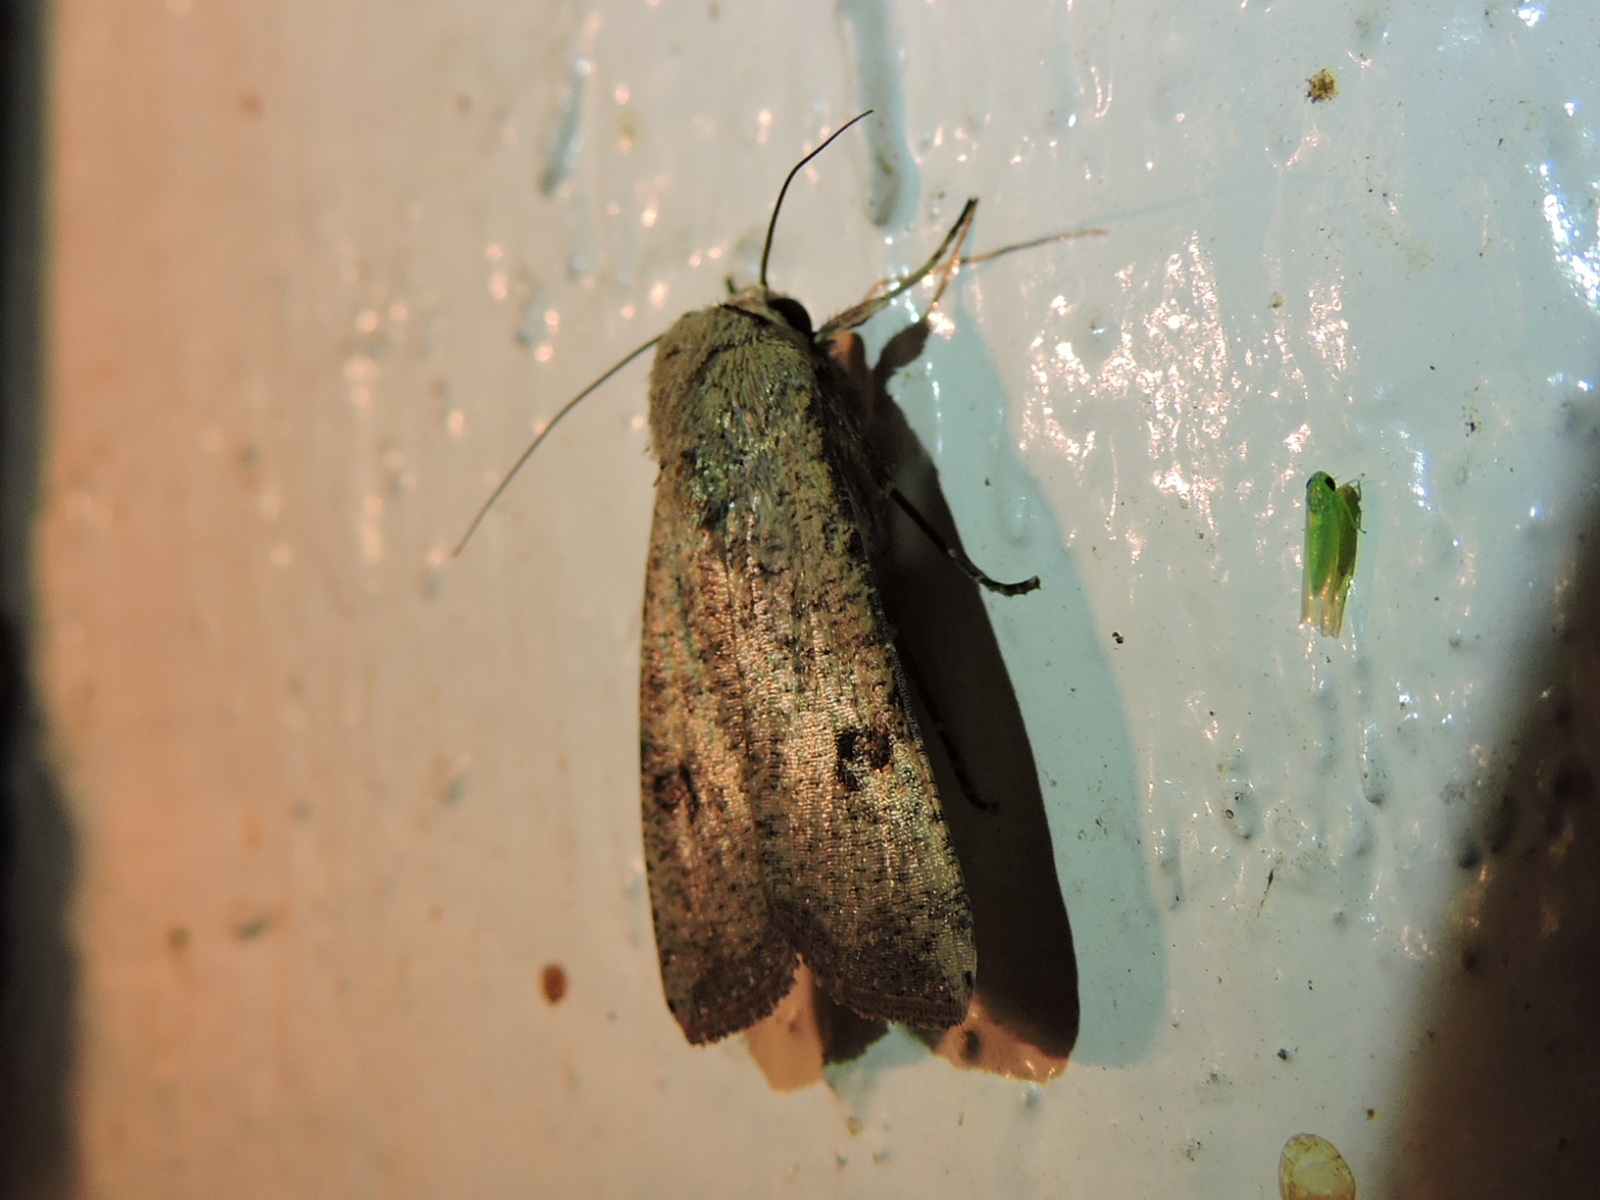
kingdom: Animalia
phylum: Arthropoda
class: Insecta
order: Lepidoptera
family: Noctuidae
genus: Anicla
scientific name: Anicla infecta
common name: Green cutworm
